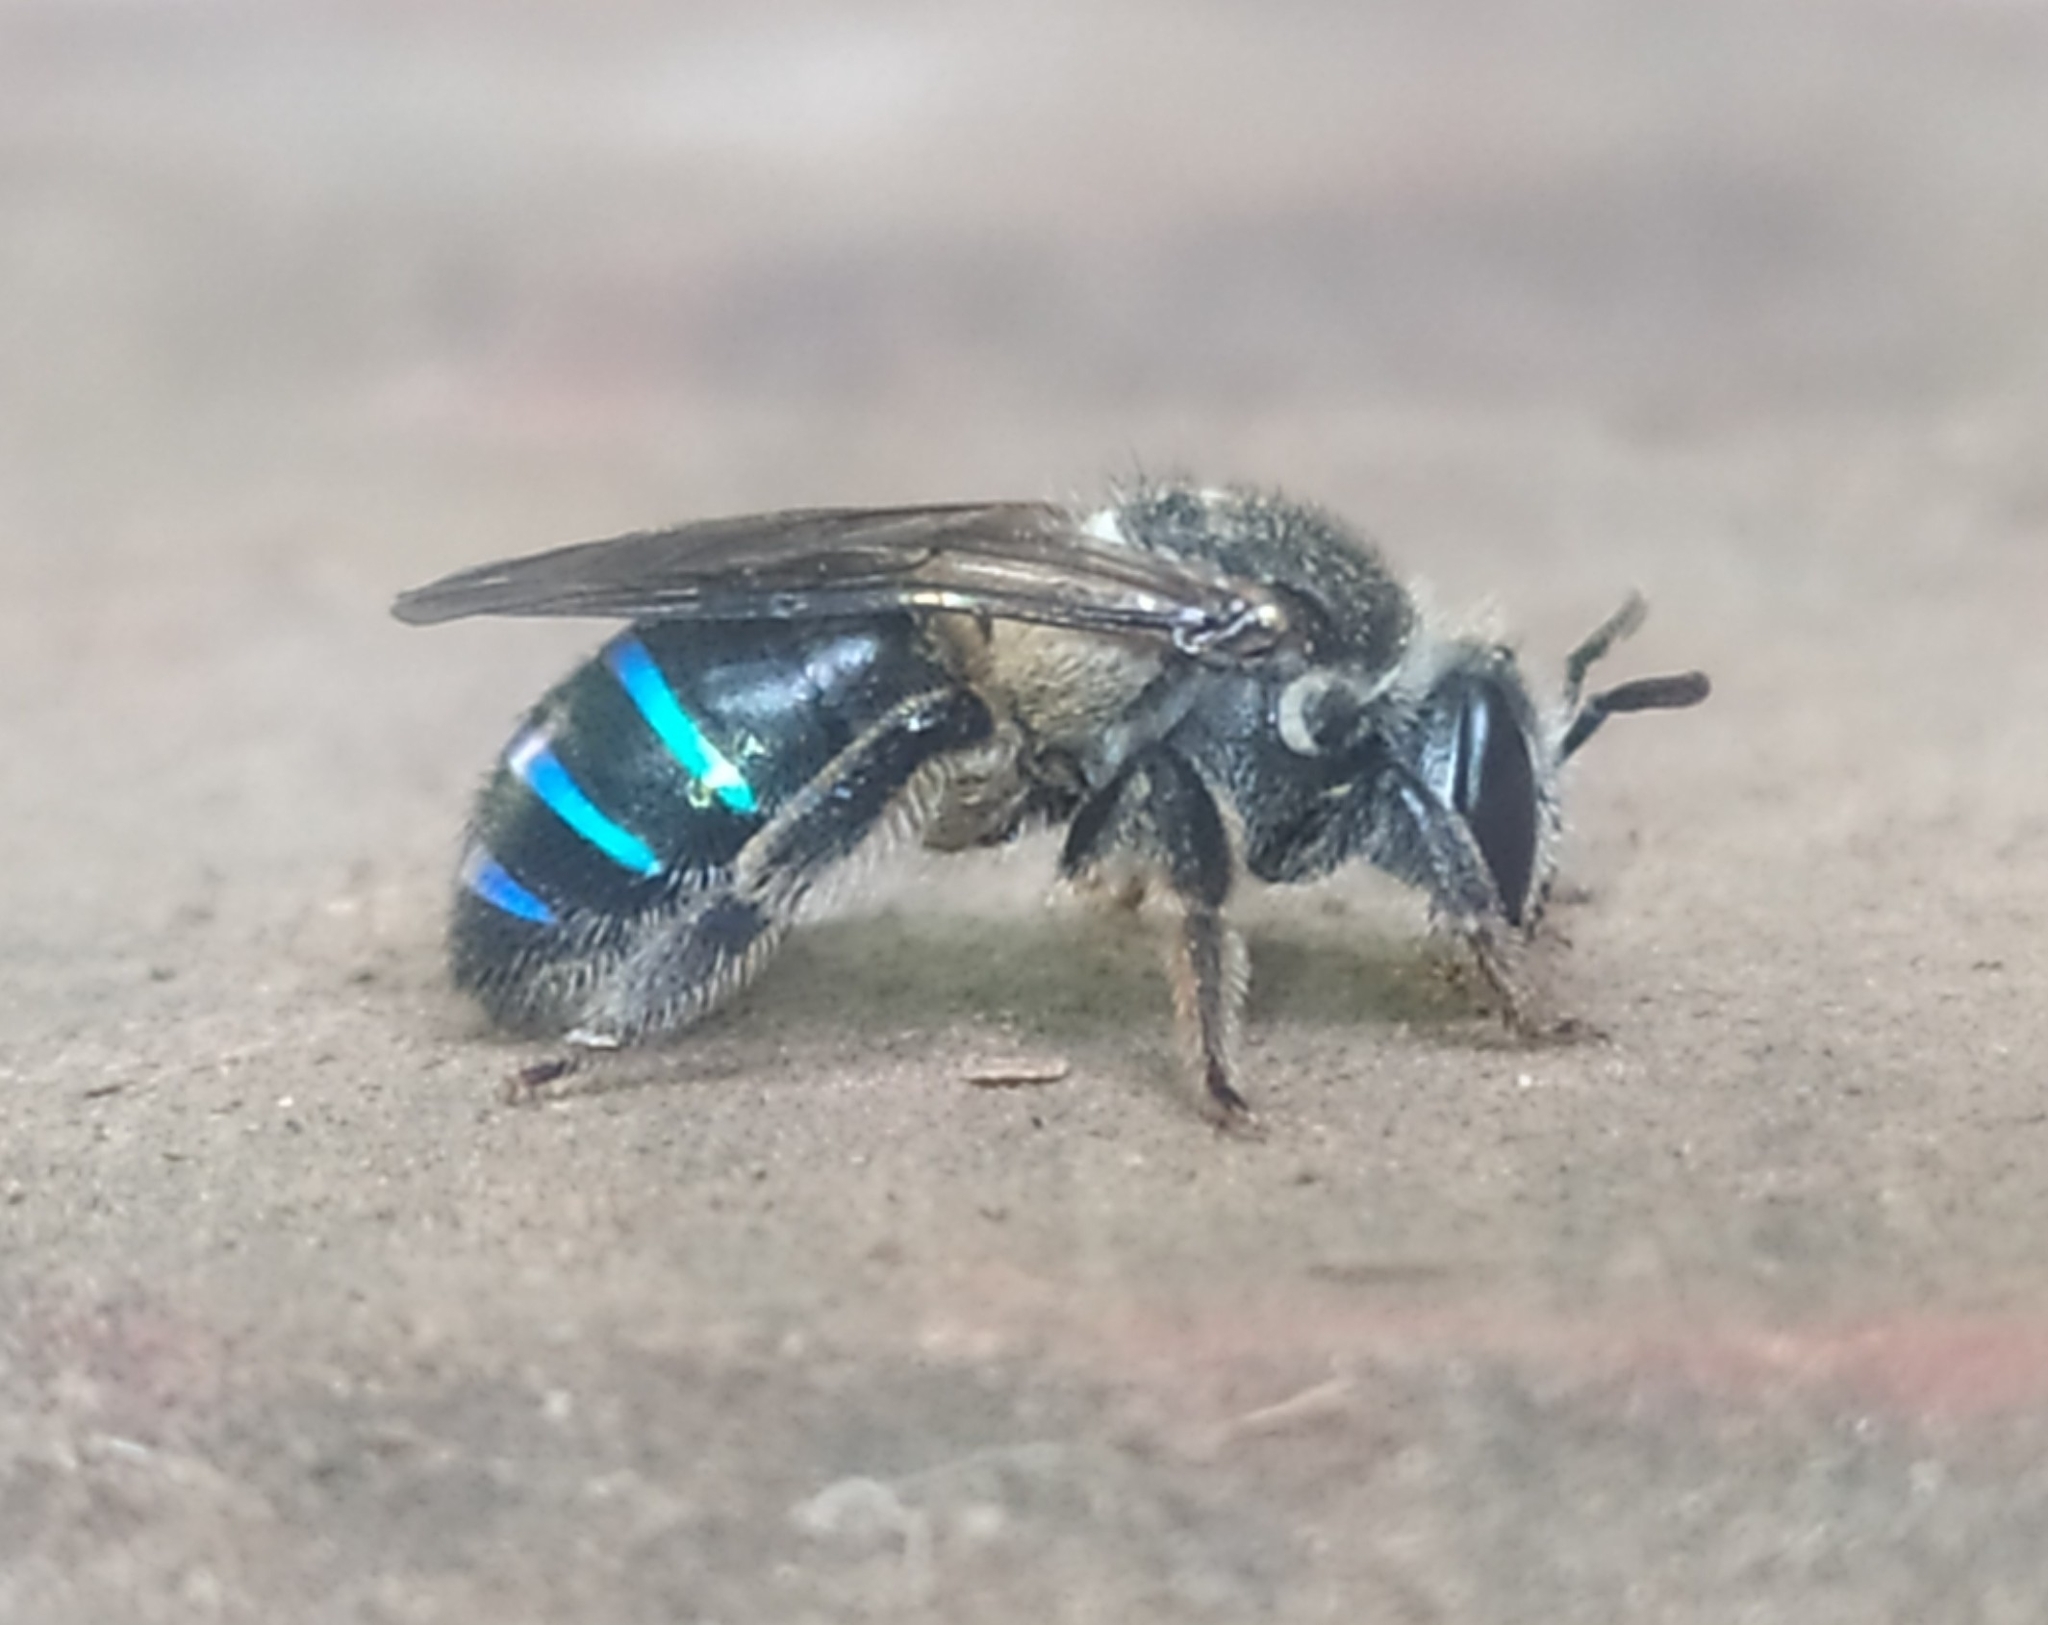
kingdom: Animalia
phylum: Arthropoda
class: Insecta
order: Hymenoptera
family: Halictidae
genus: Nomia
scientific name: Nomia iridescens
